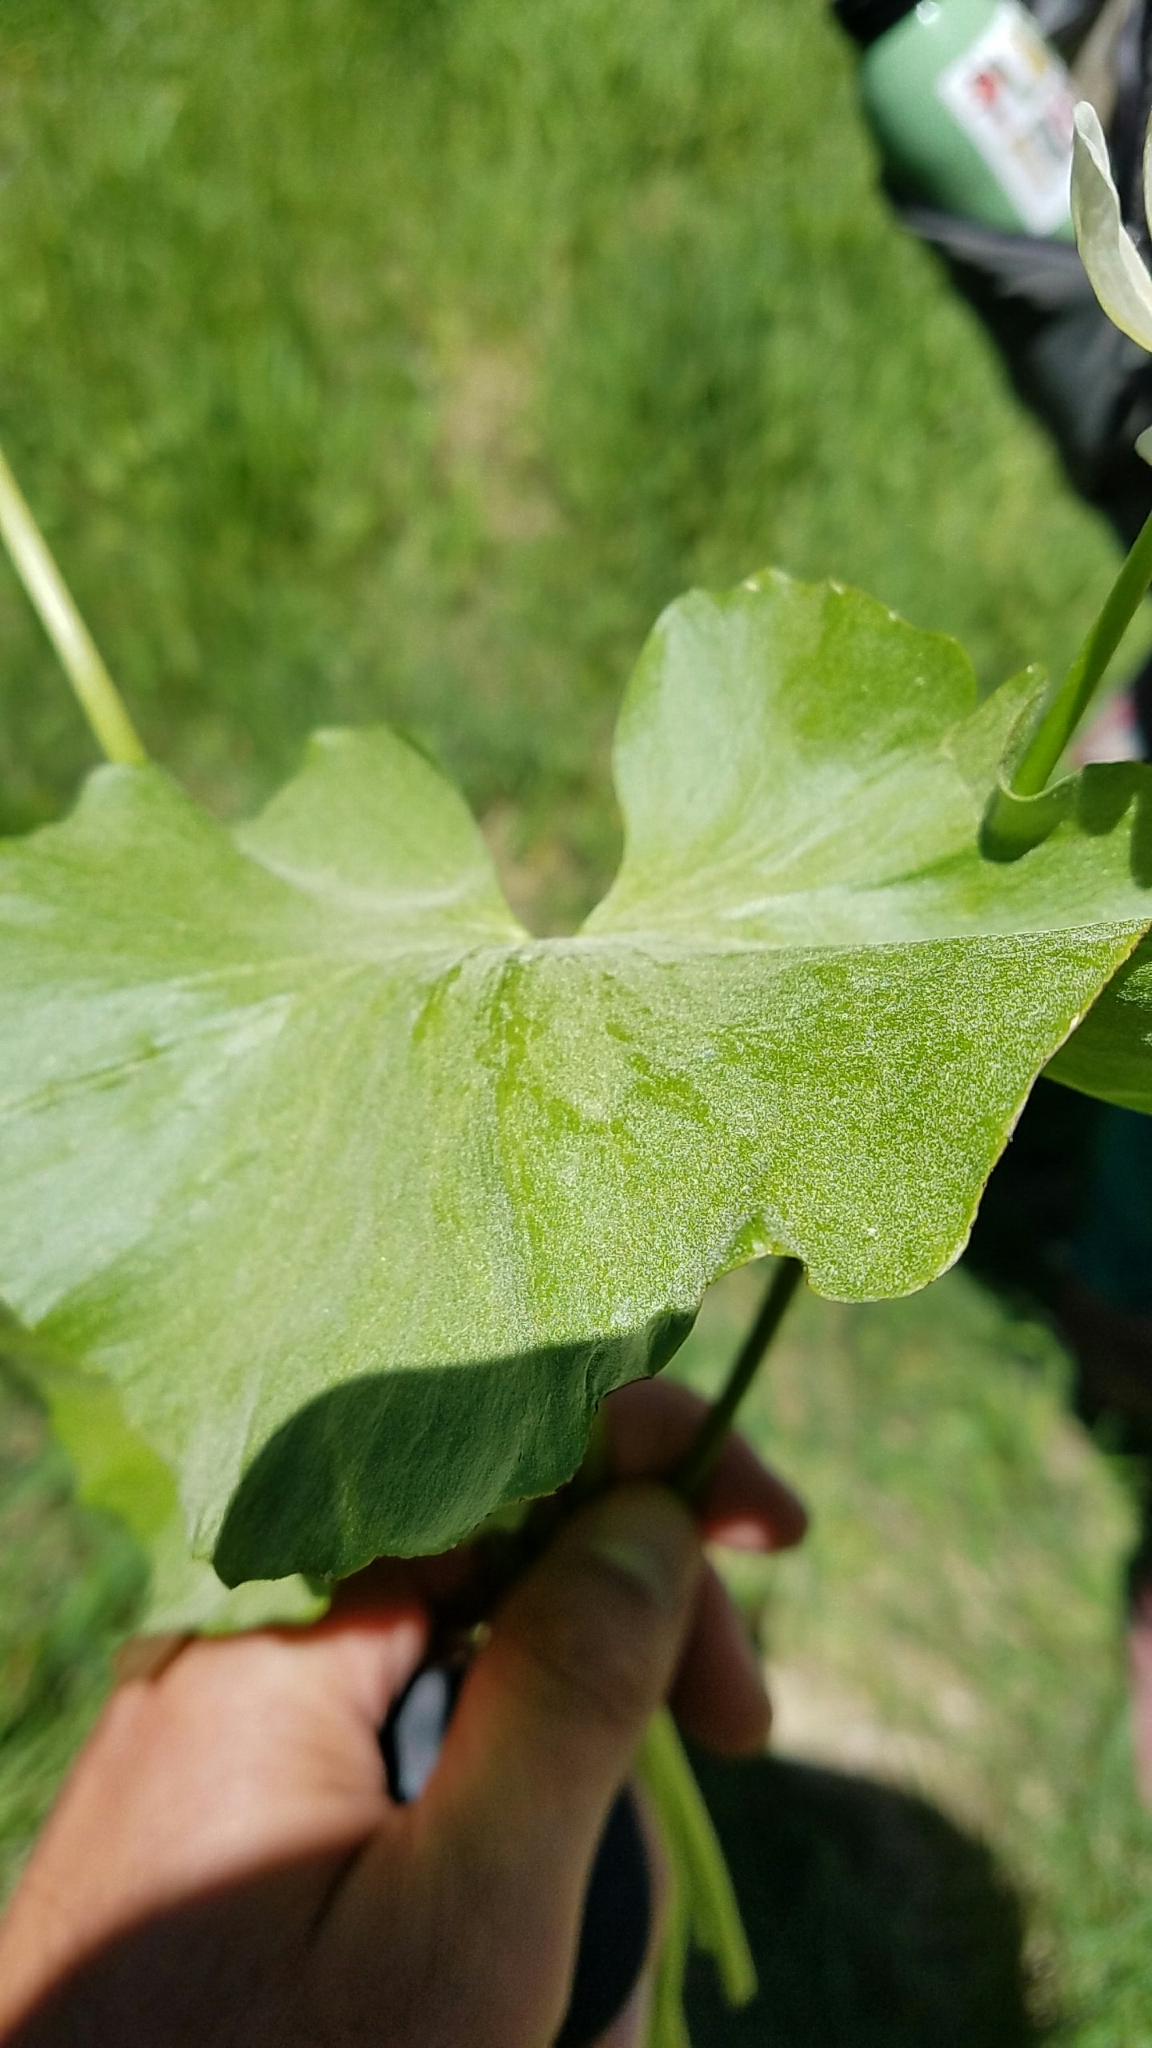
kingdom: Plantae
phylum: Tracheophyta
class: Magnoliopsida
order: Ranunculales
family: Ranunculaceae
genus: Caltha
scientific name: Caltha leptosepala
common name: Elkslip
